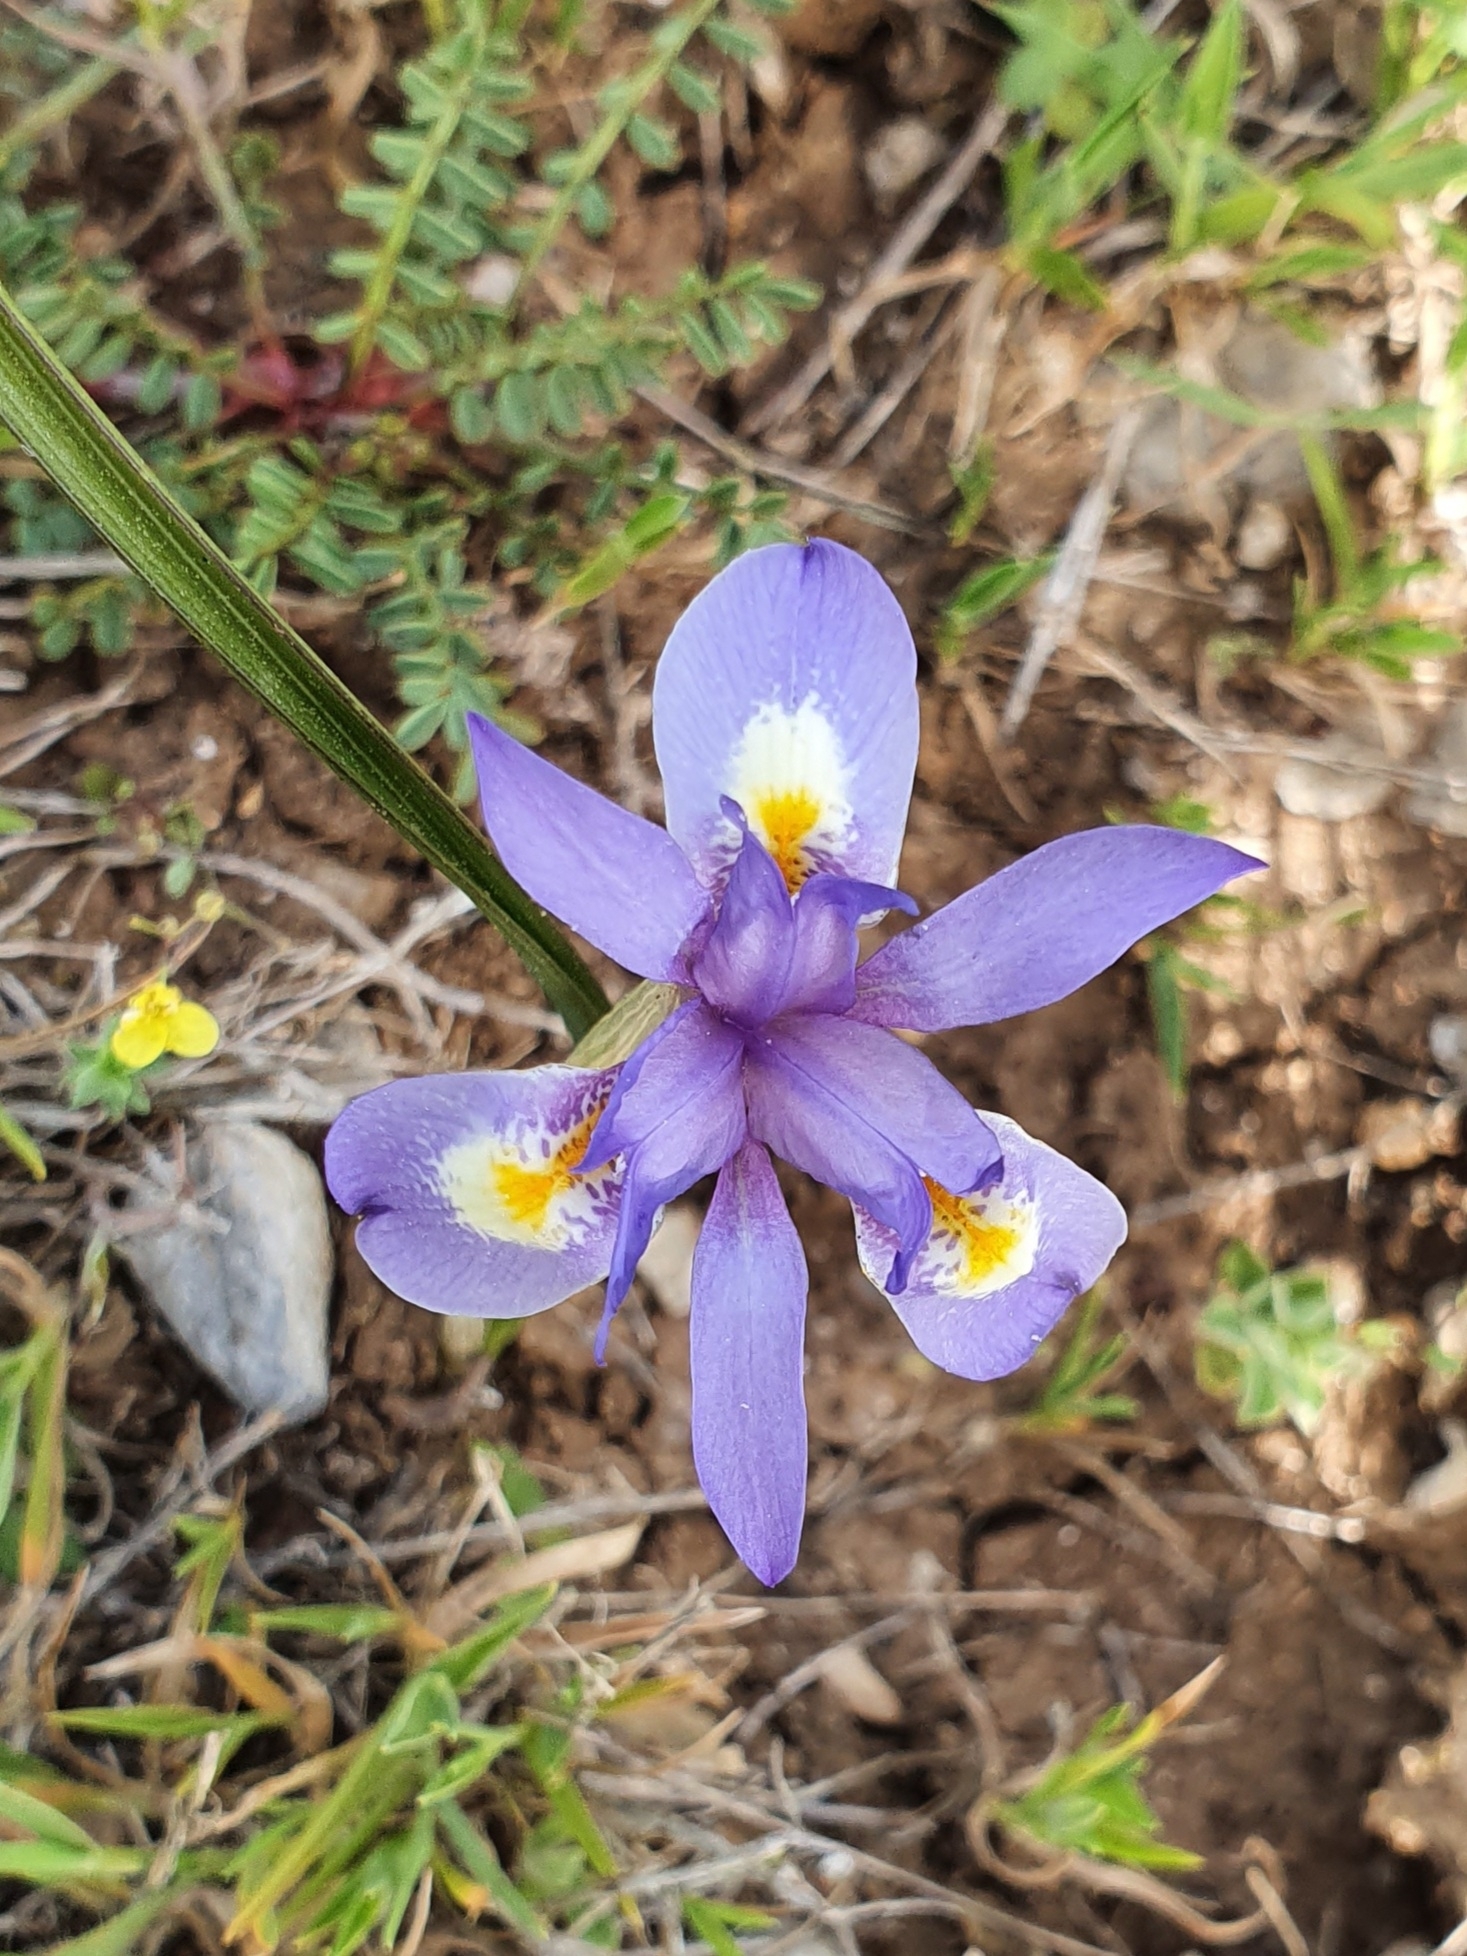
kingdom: Plantae
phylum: Tracheophyta
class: Liliopsida
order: Asparagales
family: Iridaceae
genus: Moraea
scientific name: Moraea sisyrinchium
